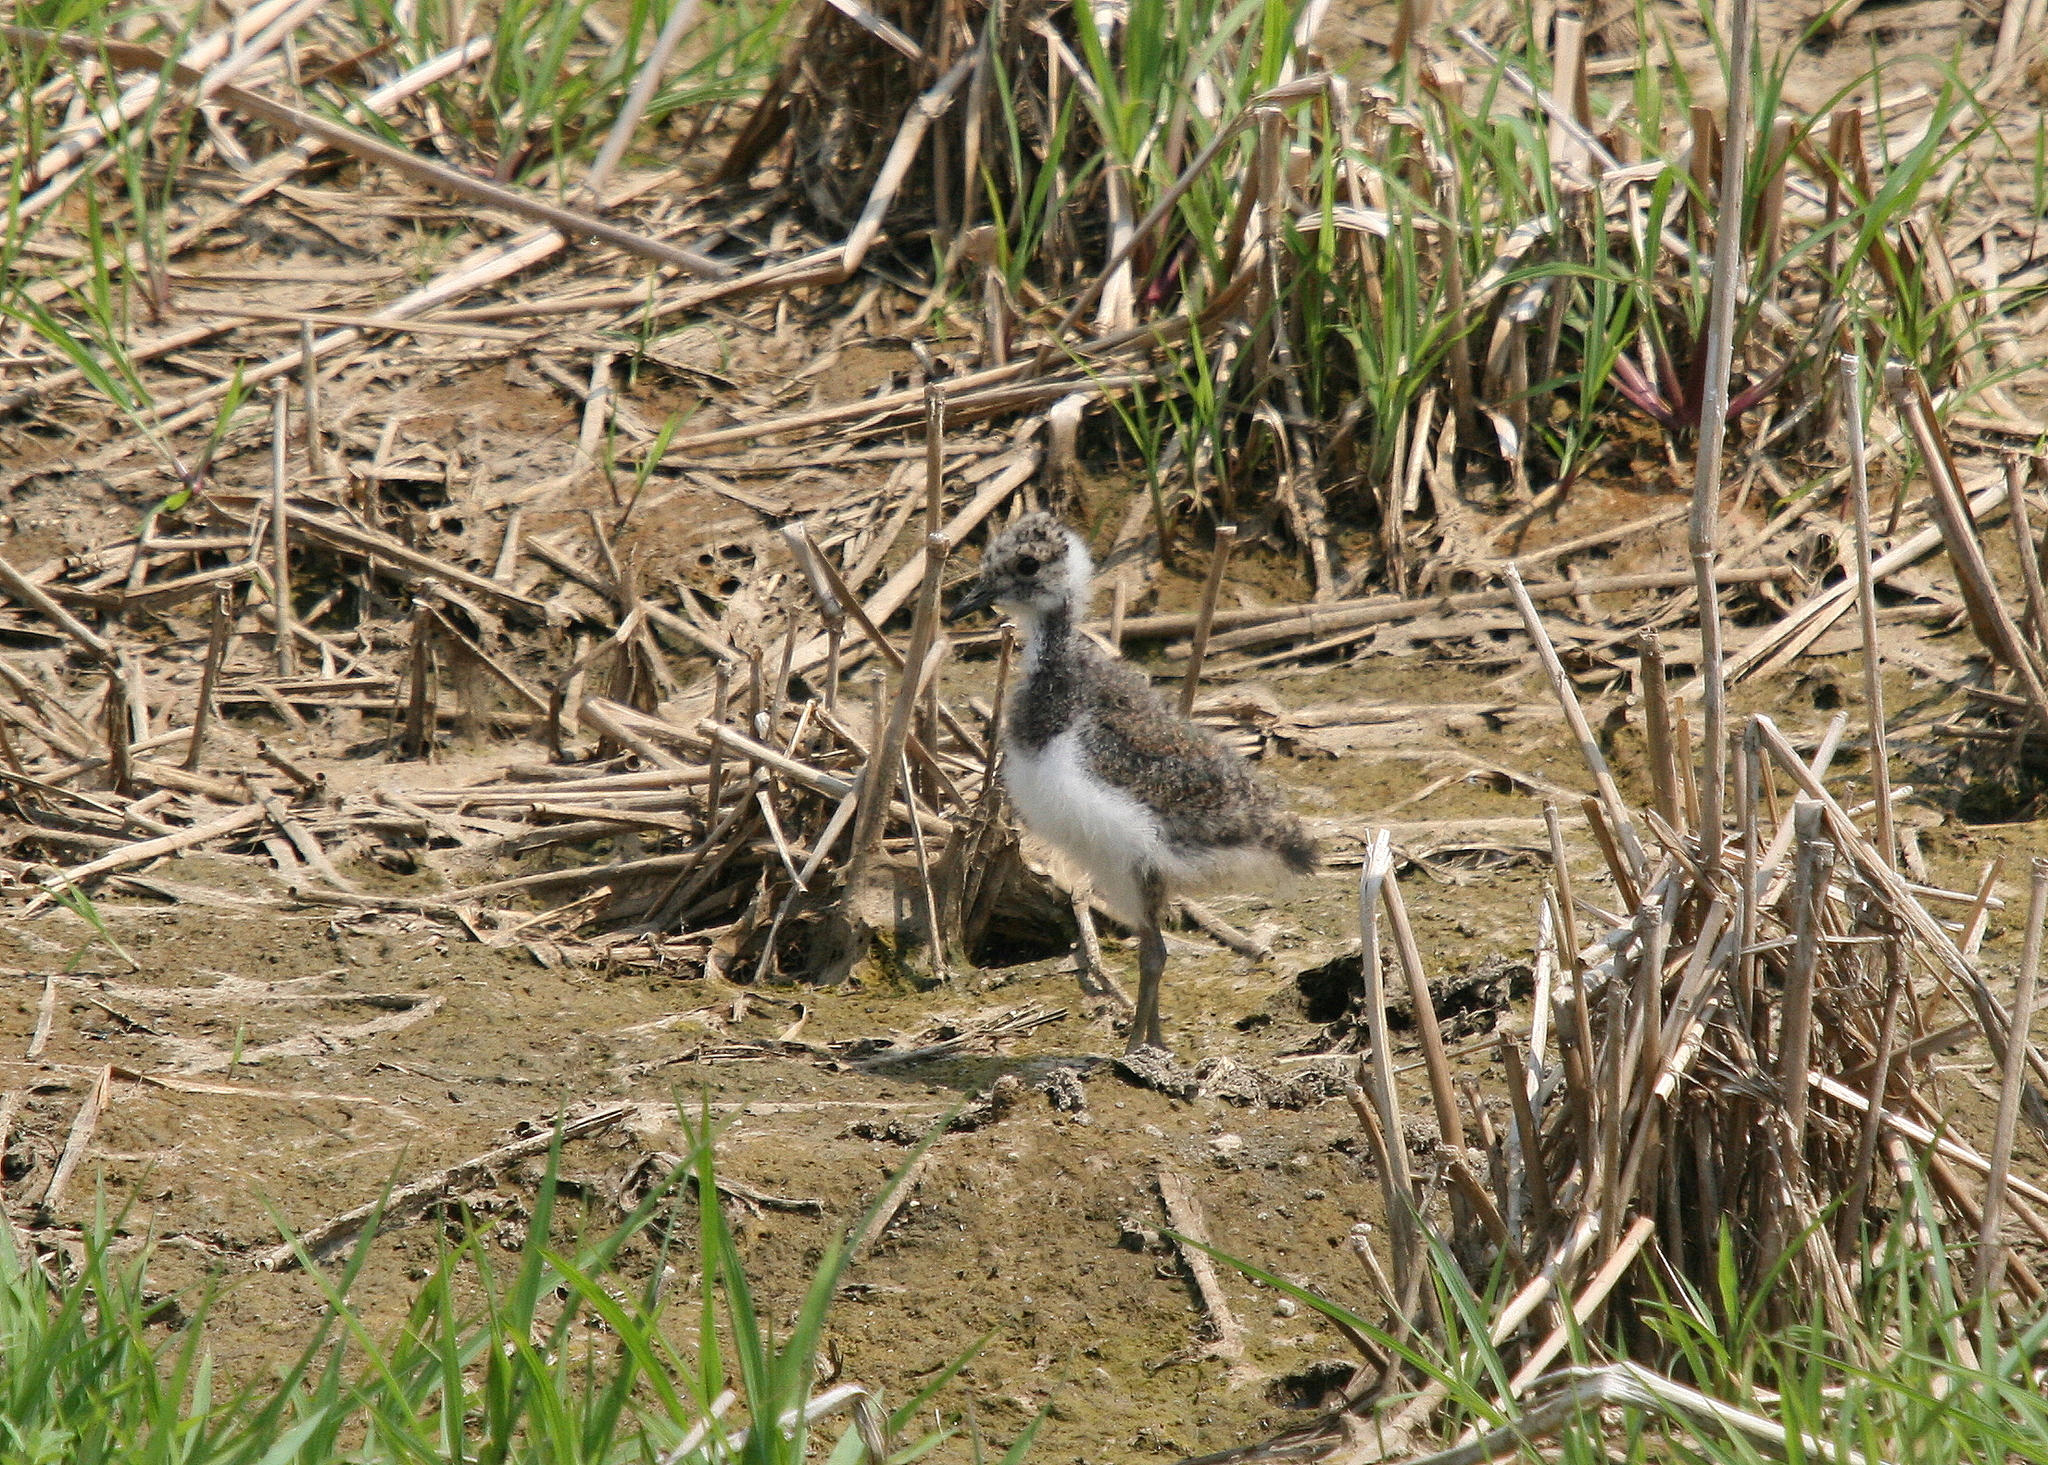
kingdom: Animalia
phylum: Chordata
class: Aves
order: Charadriiformes
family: Charadriidae
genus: Vanellus
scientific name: Vanellus vanellus
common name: Northern lapwing
